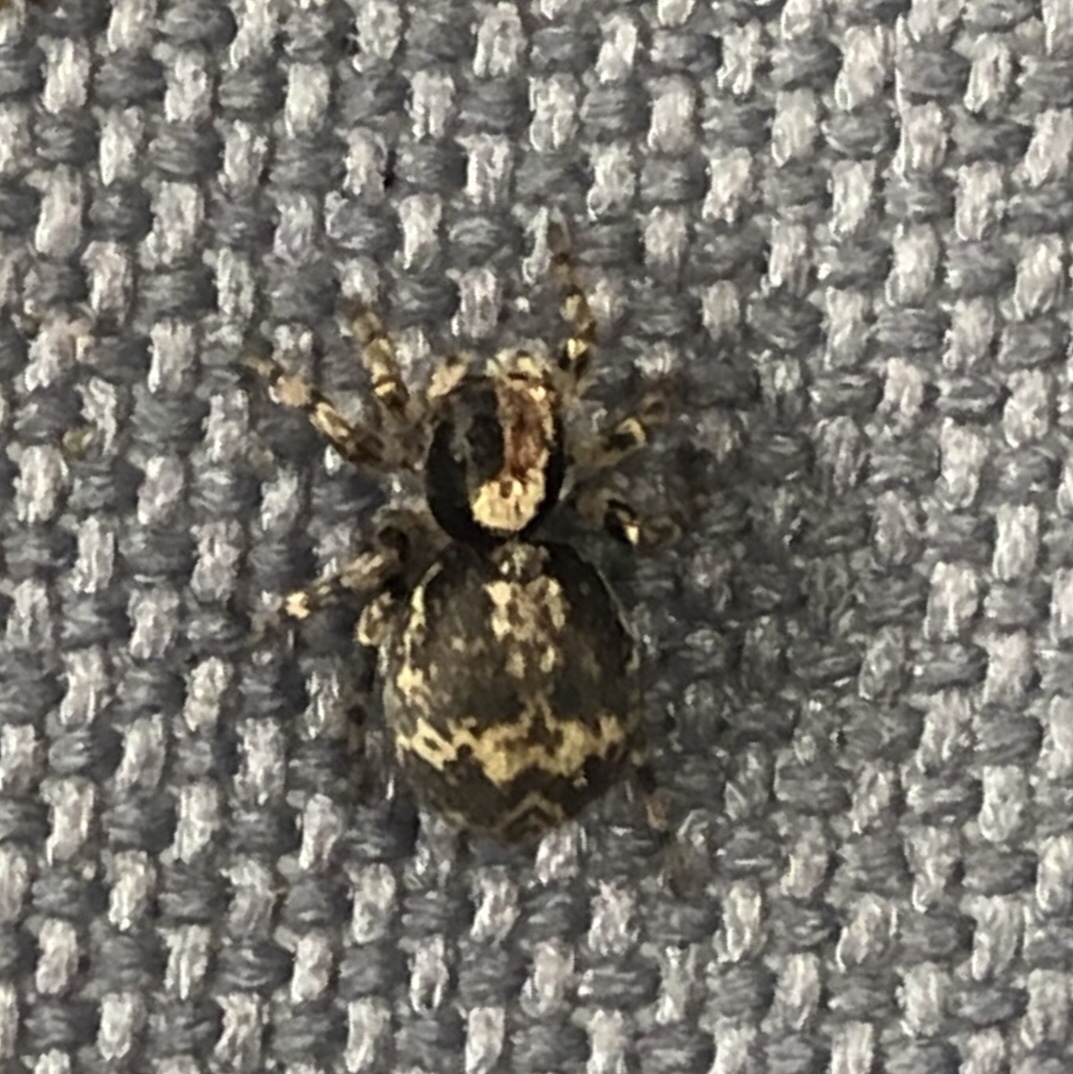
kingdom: Animalia
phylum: Arthropoda
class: Arachnida
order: Araneae
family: Salticidae
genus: Naphrys
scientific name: Naphrys pulex
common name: Flea jumping spider
